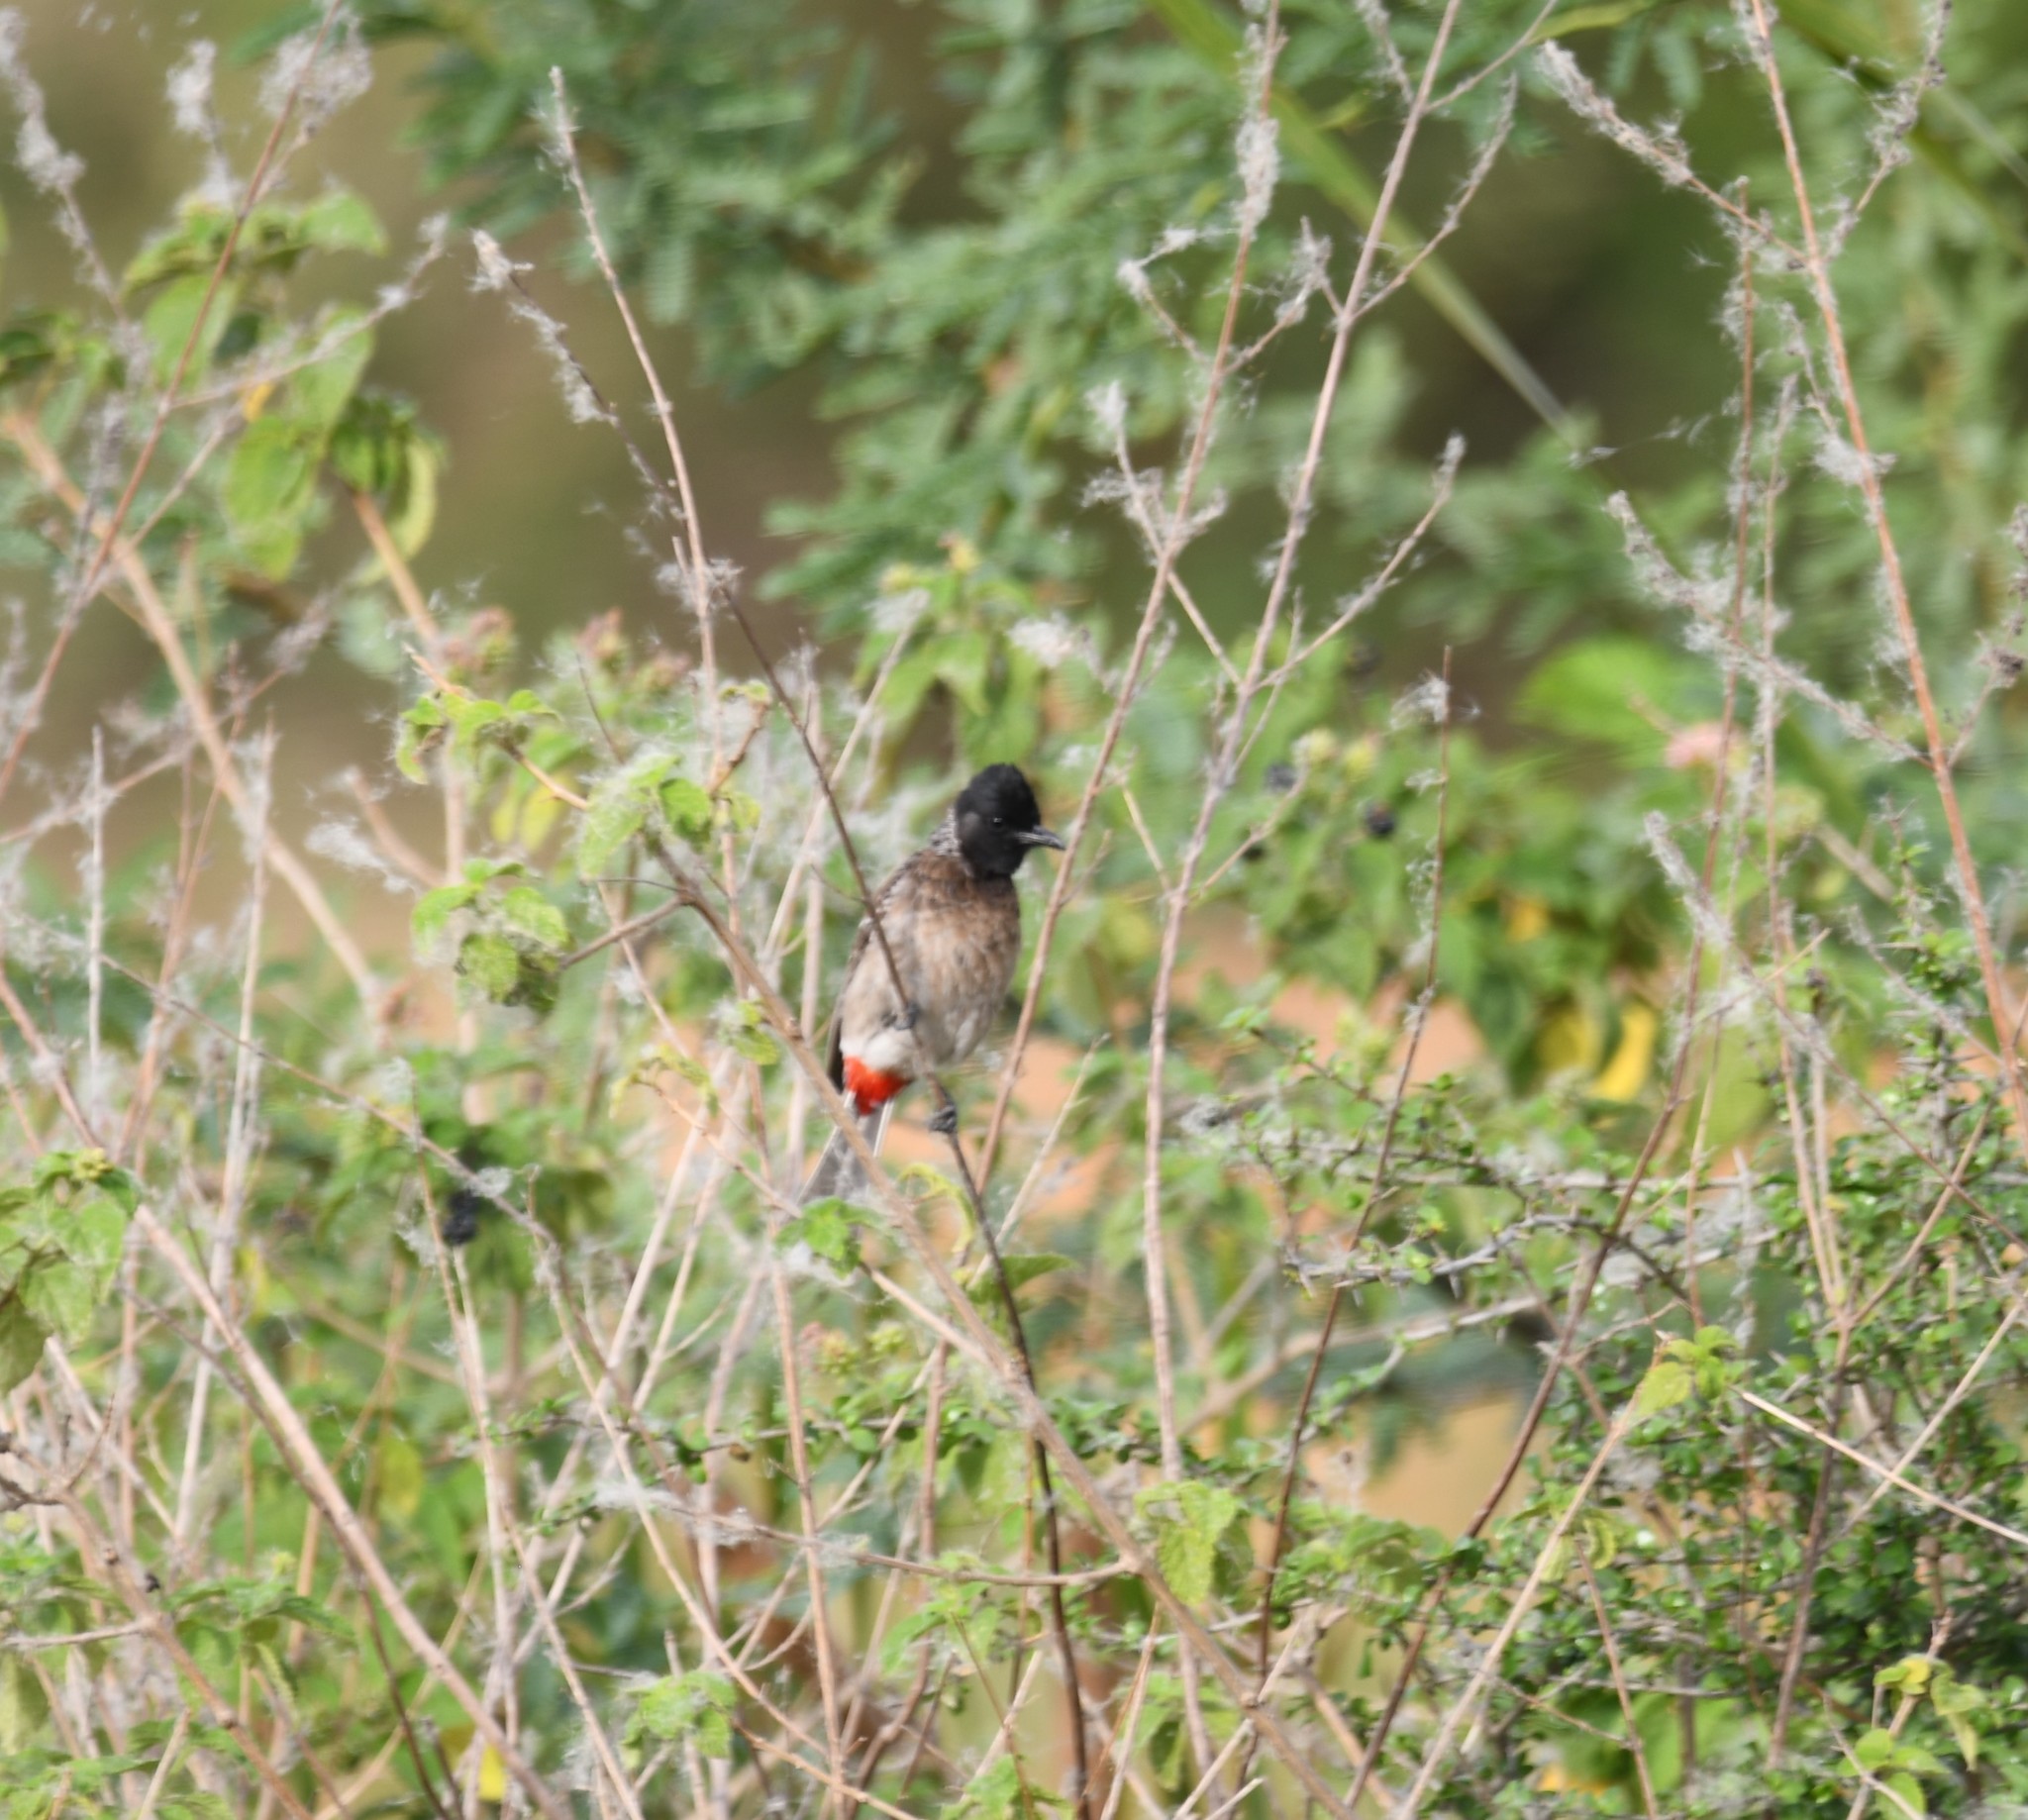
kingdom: Animalia
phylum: Chordata
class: Aves
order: Passeriformes
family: Pycnonotidae
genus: Pycnonotus
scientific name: Pycnonotus cafer
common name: Red-vented bulbul
